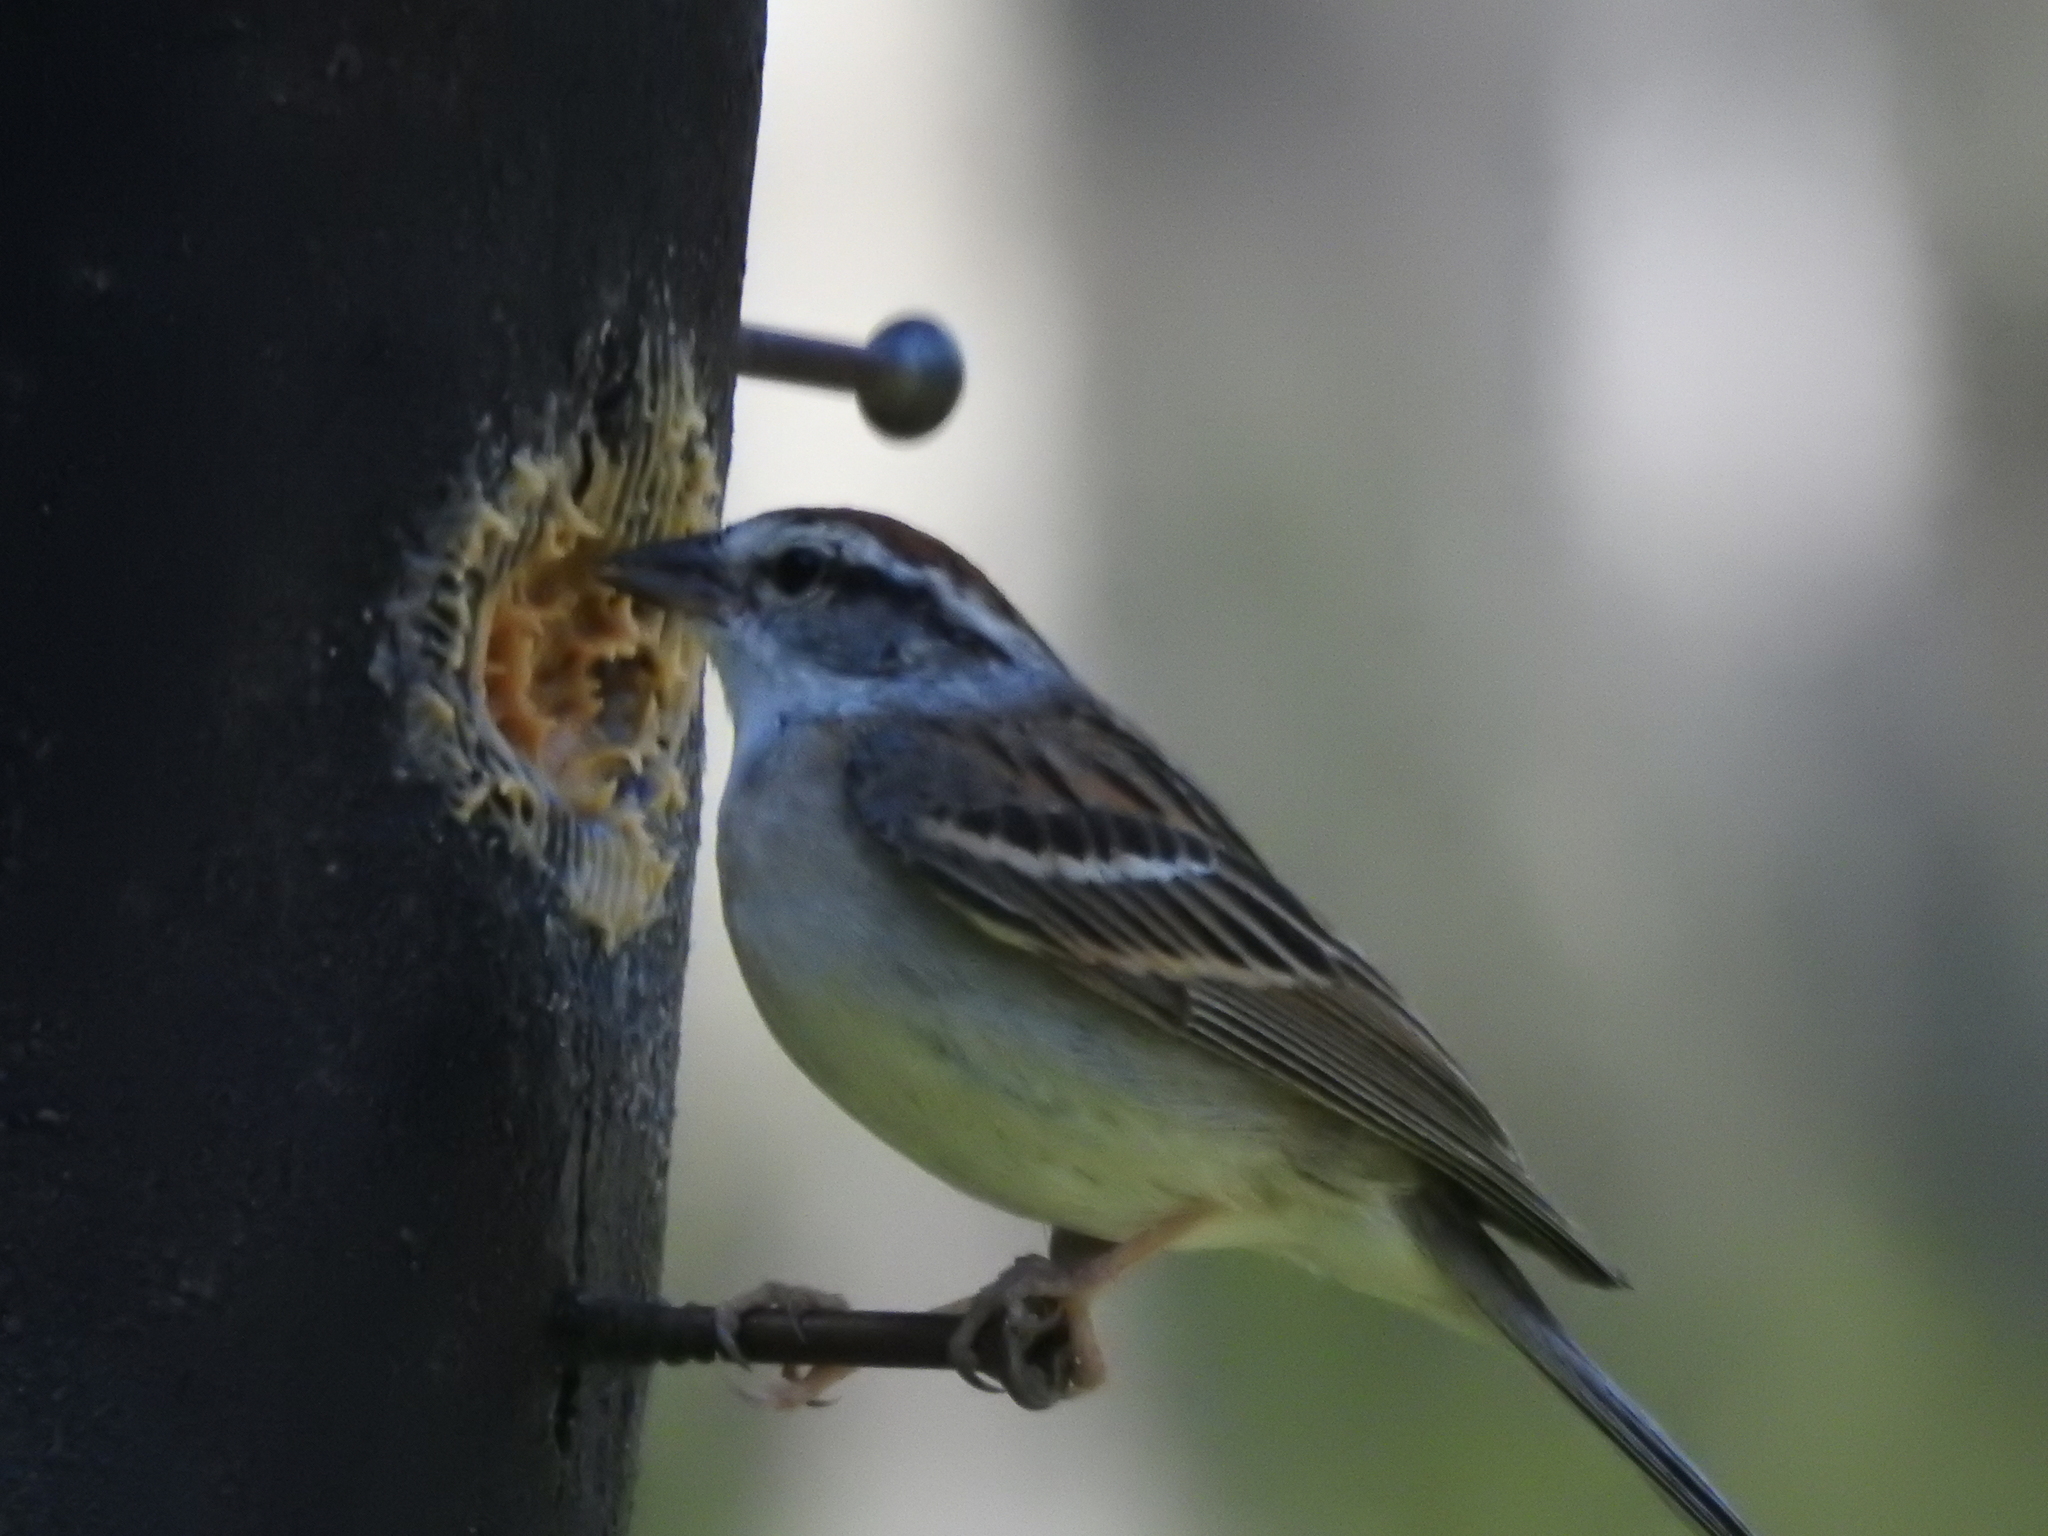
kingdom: Animalia
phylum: Chordata
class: Aves
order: Passeriformes
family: Passerellidae
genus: Spizella
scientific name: Spizella passerina
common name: Chipping sparrow
